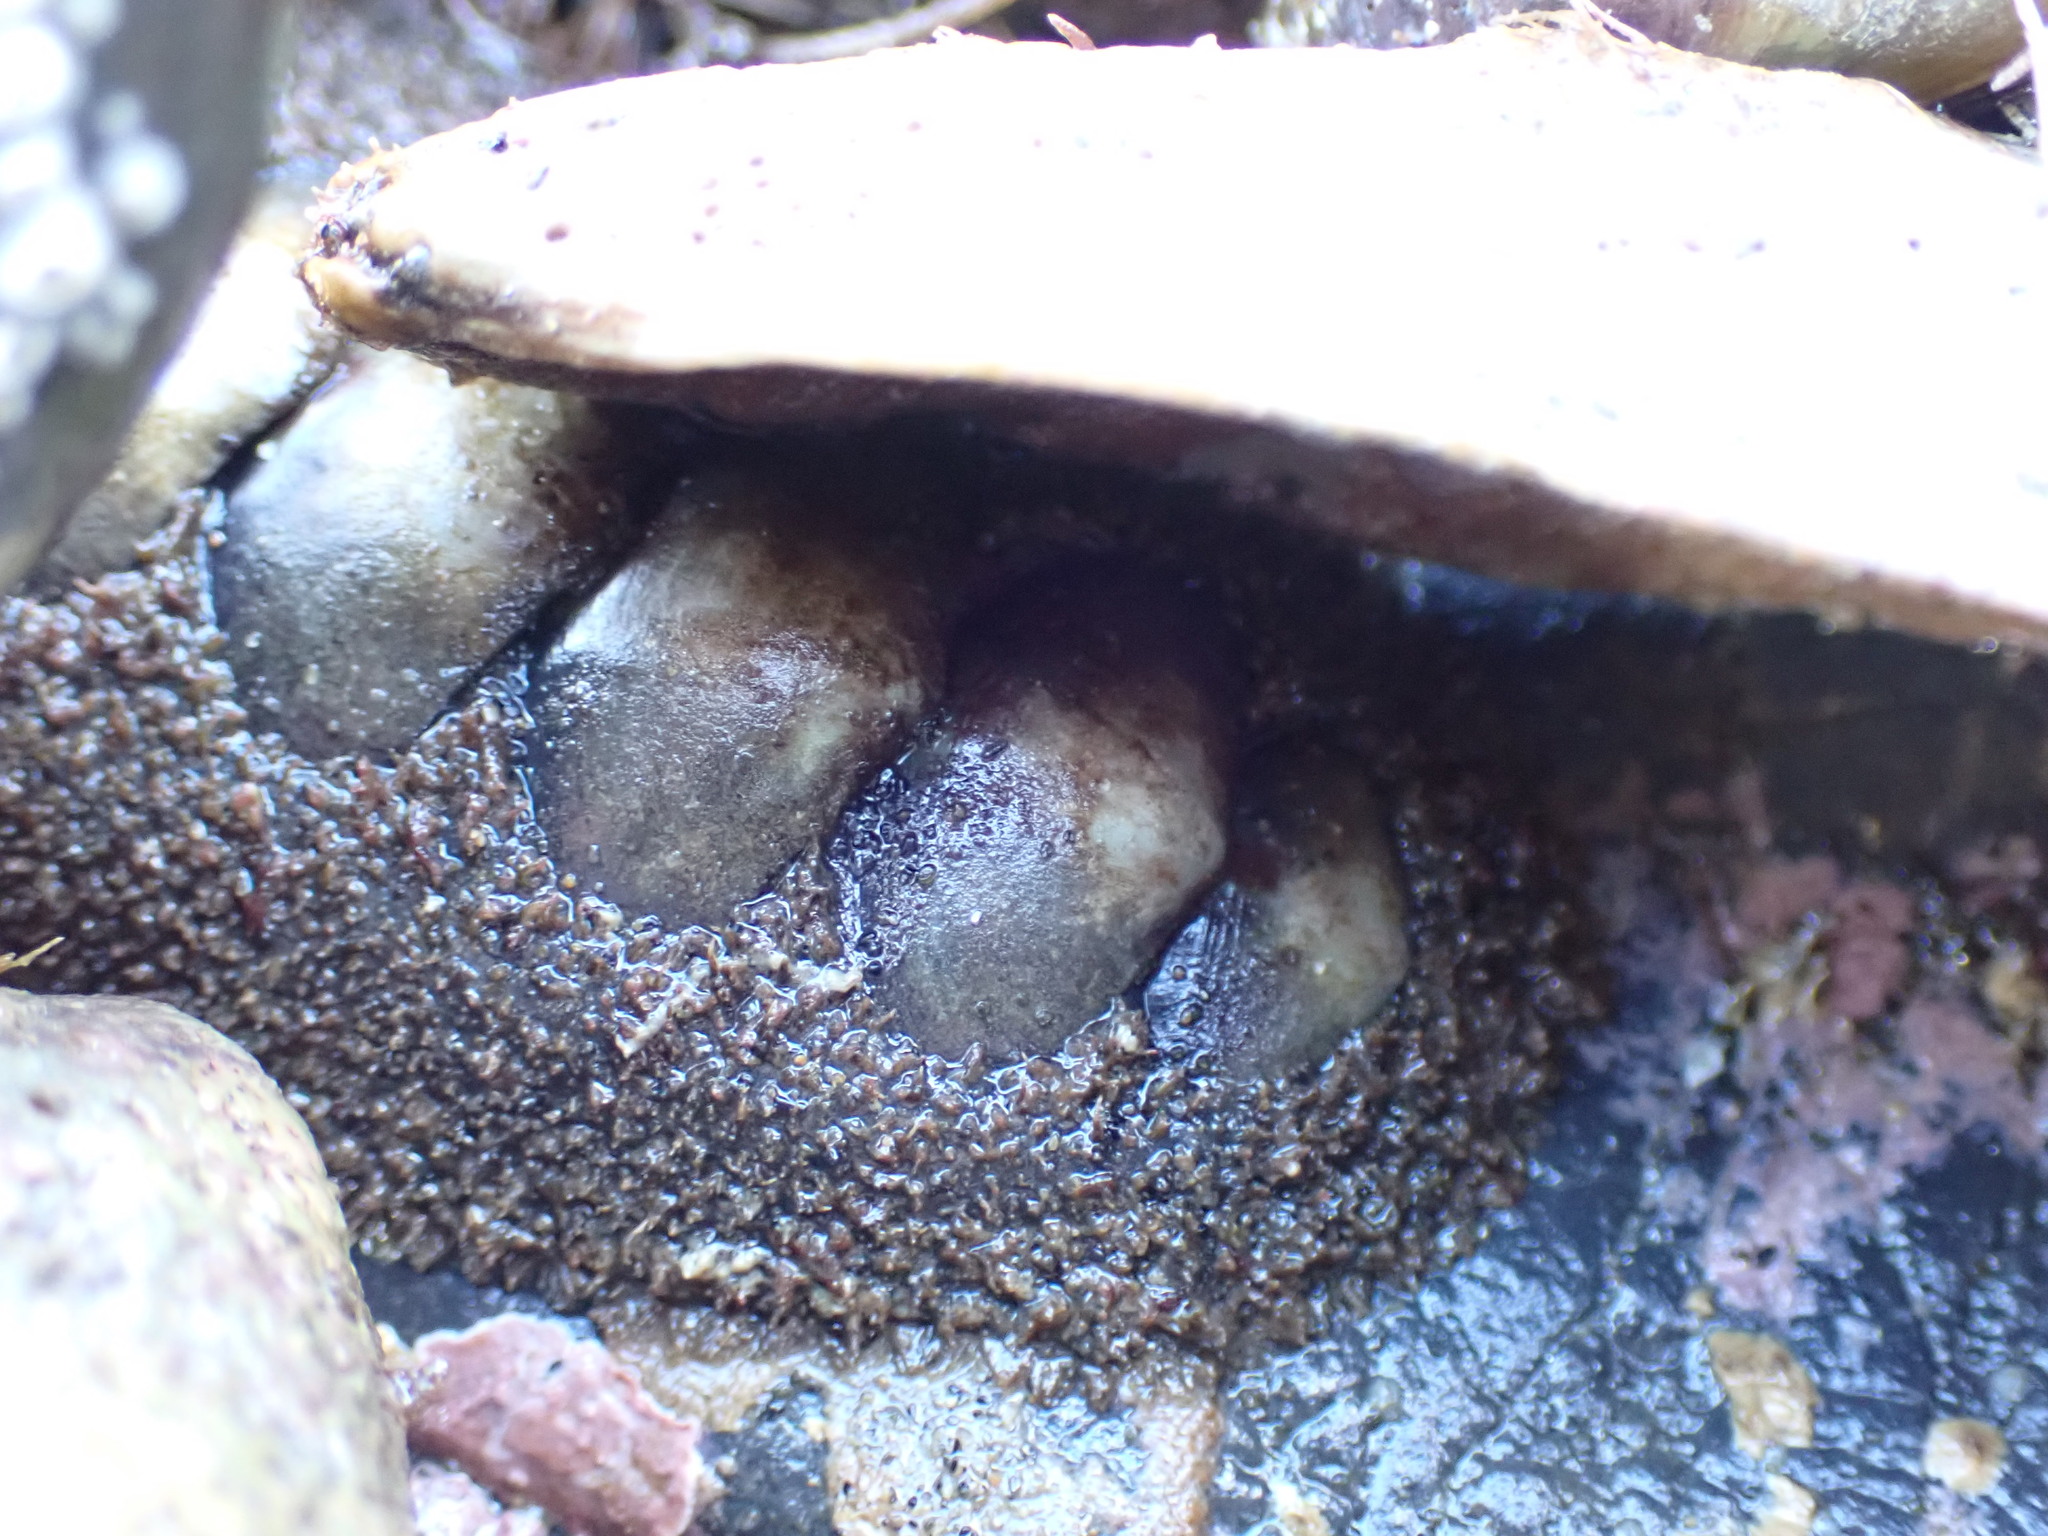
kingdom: Animalia
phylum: Mollusca
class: Polyplacophora
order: Chitonida
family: Mopaliidae
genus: Plaxiphora
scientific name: Plaxiphora obtecta
